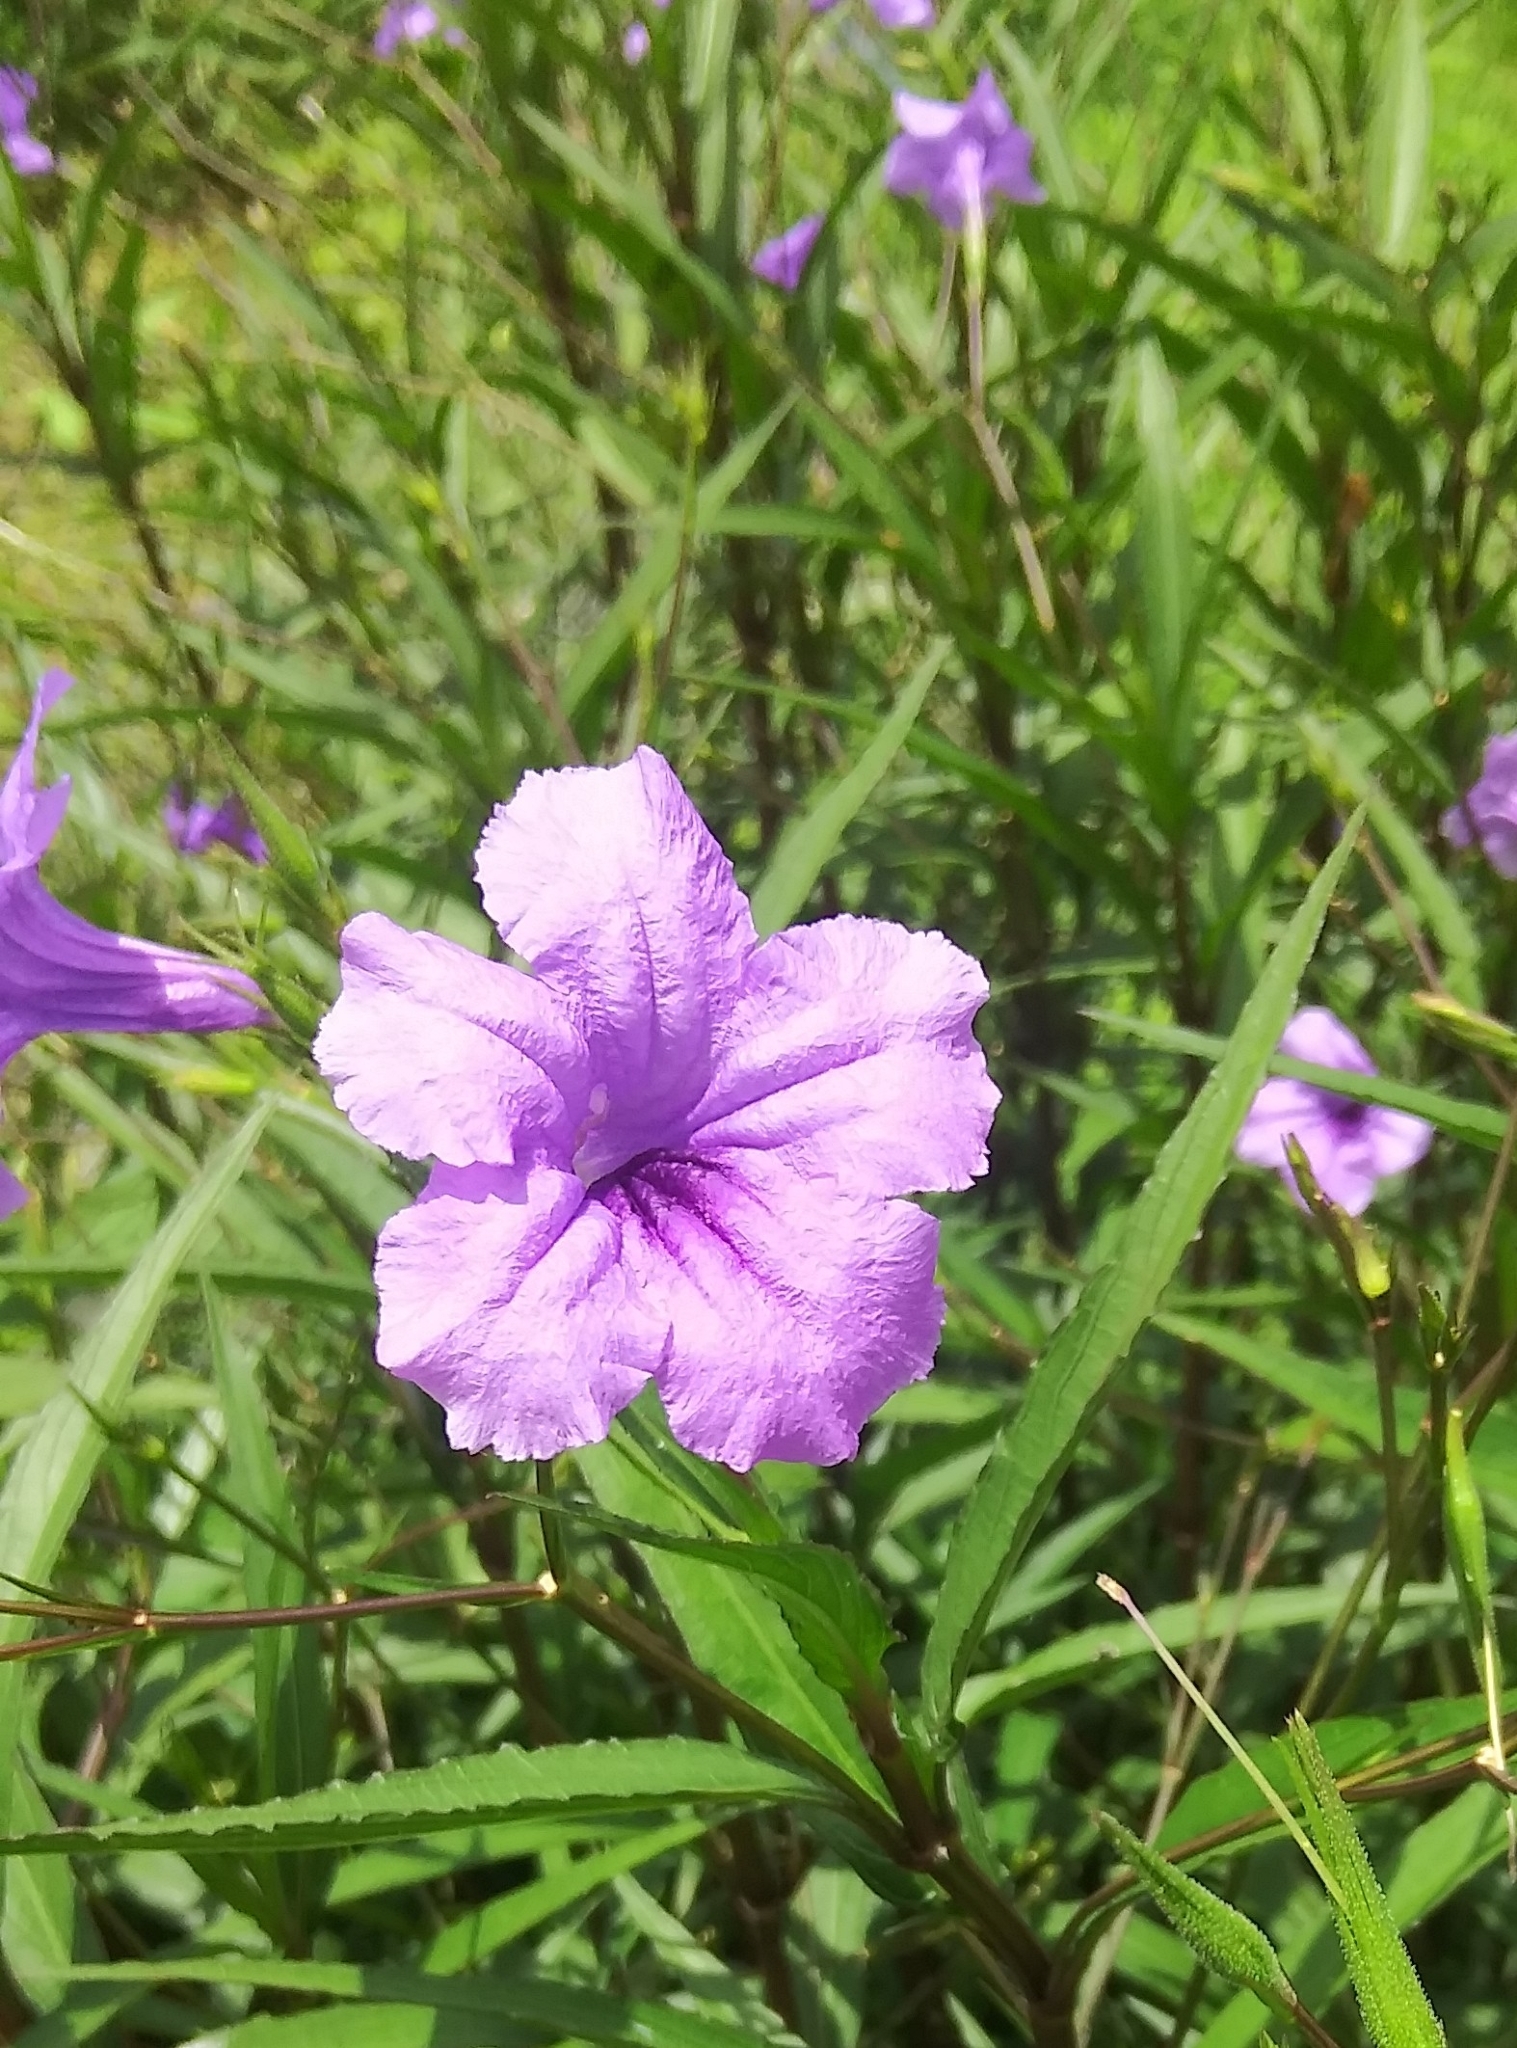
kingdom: Plantae
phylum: Tracheophyta
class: Magnoliopsida
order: Lamiales
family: Acanthaceae
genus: Ruellia
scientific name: Ruellia simplex
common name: Softseed wild petunia
